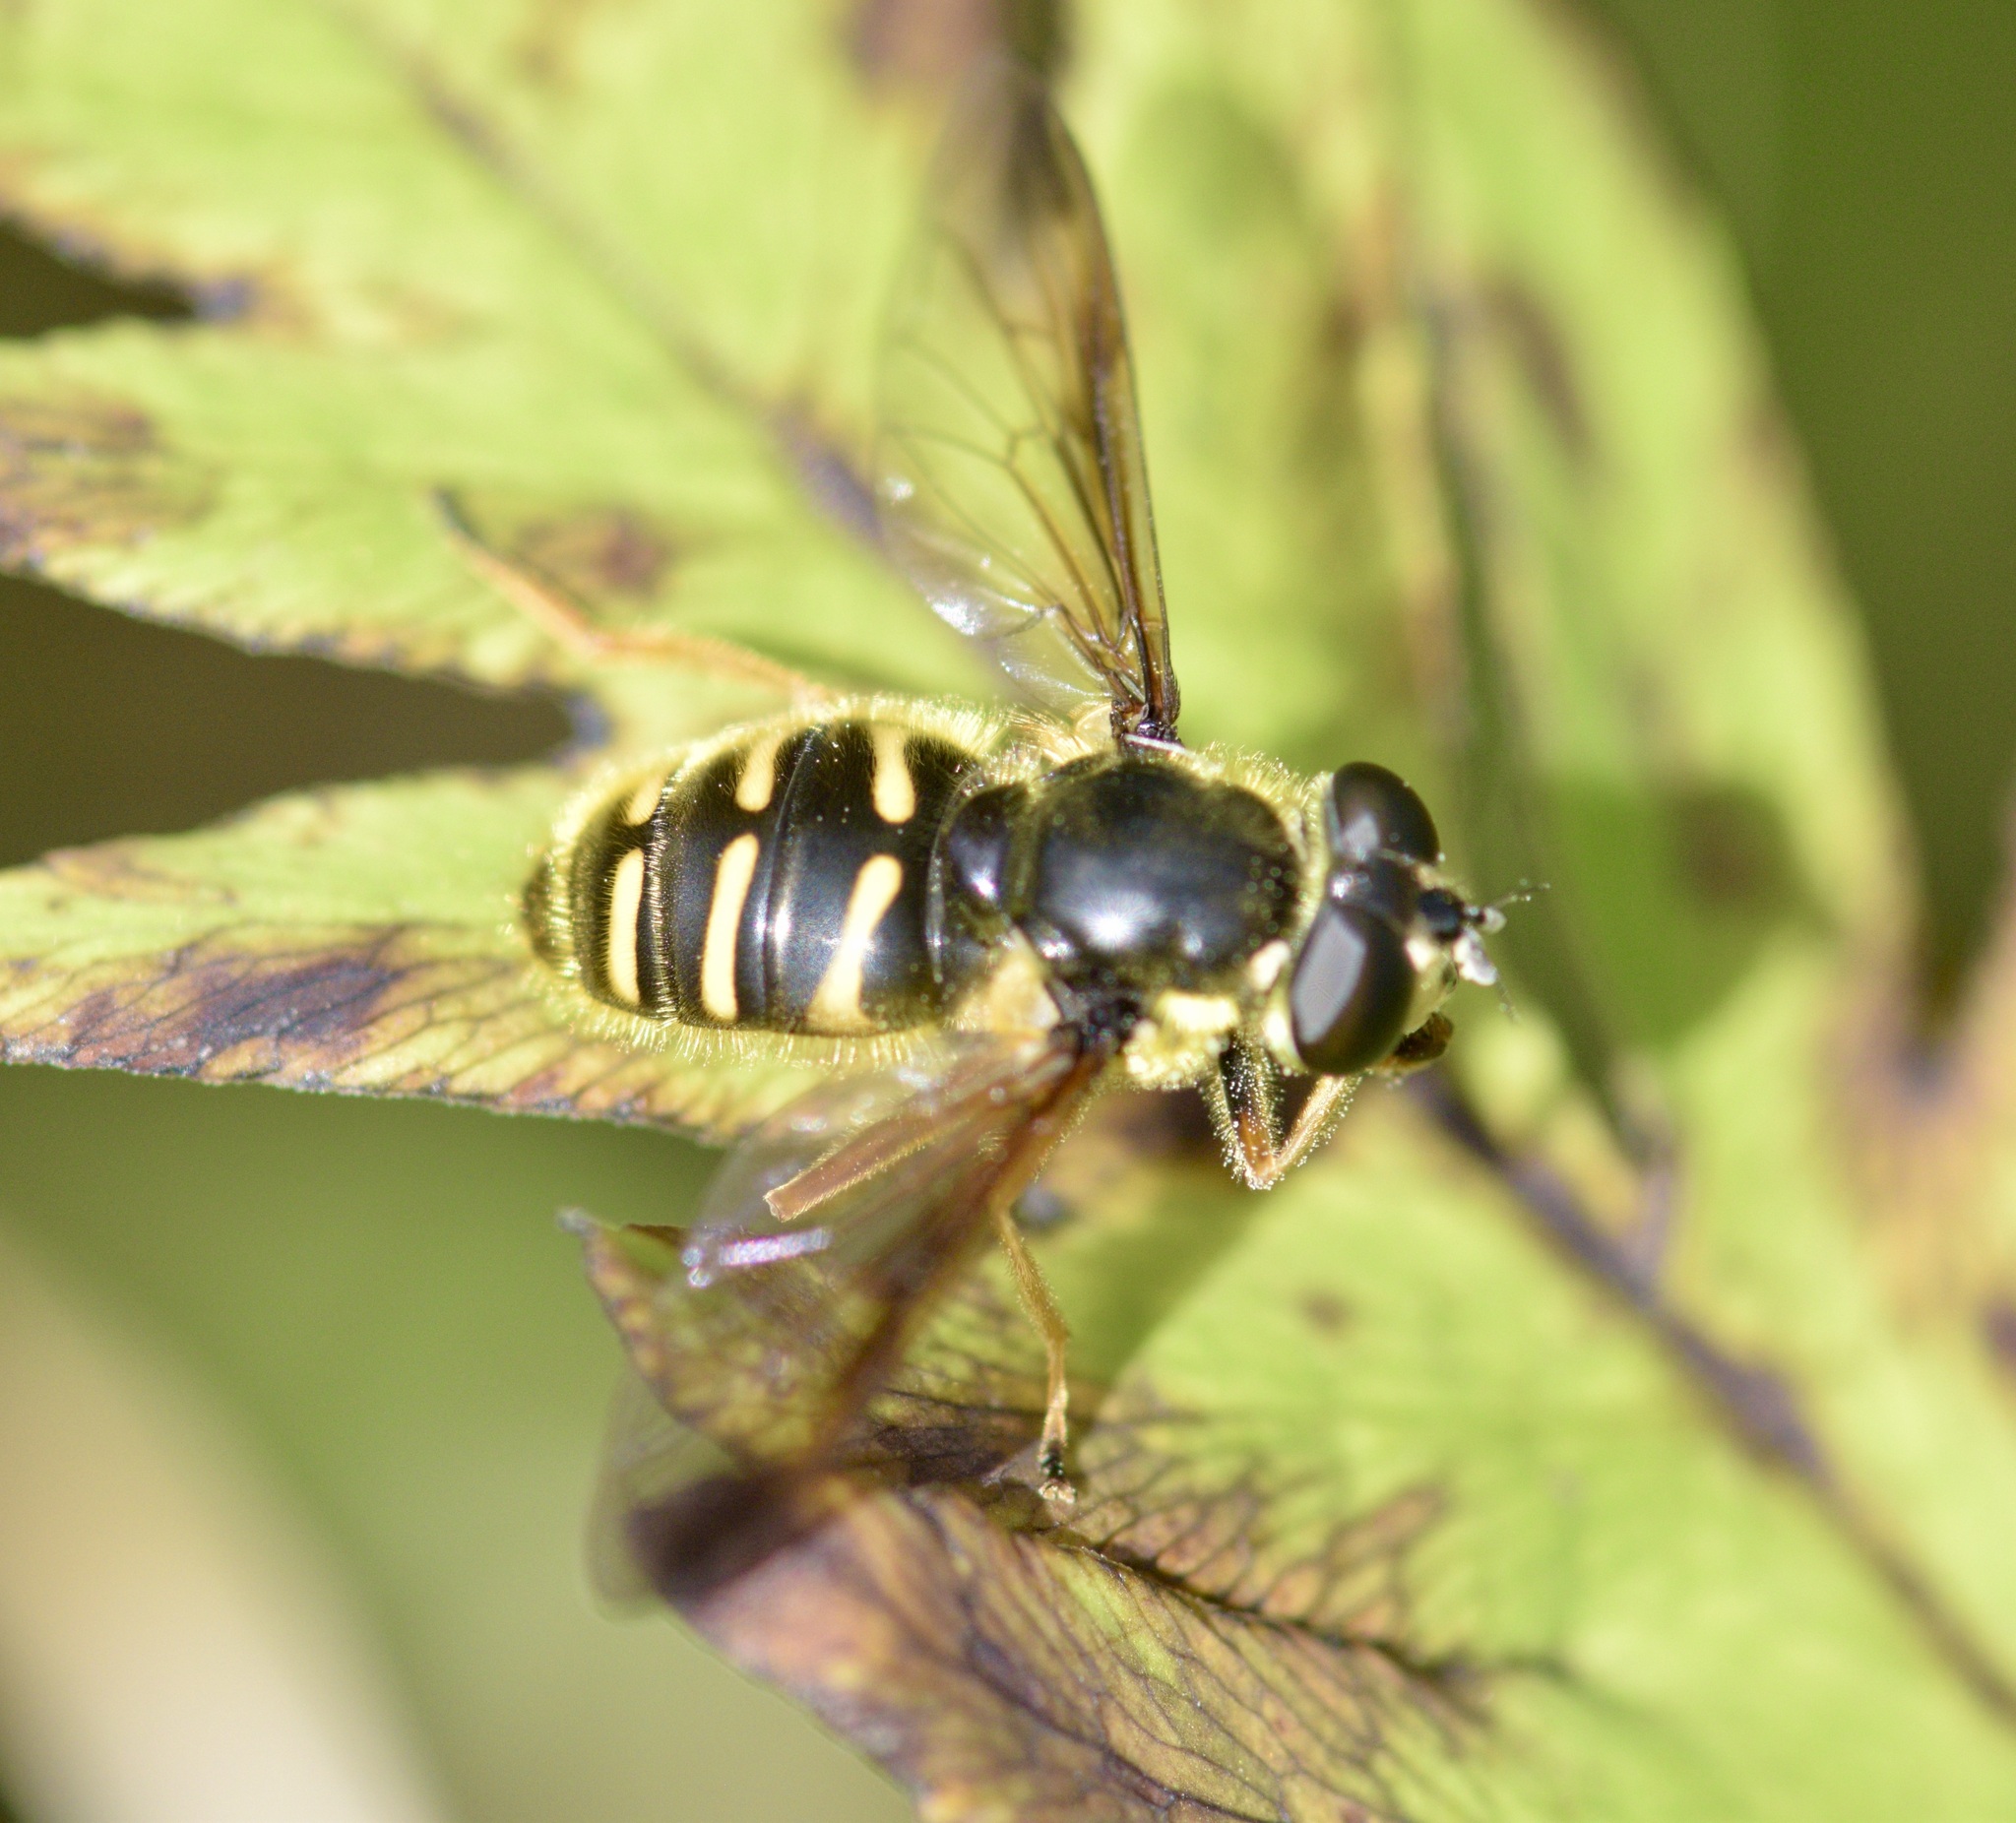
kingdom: Animalia
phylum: Arthropoda
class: Insecta
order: Diptera
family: Syrphidae
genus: Sericomyia
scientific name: Sericomyia chrysotoxoides
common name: Oblique-banded pond fly
